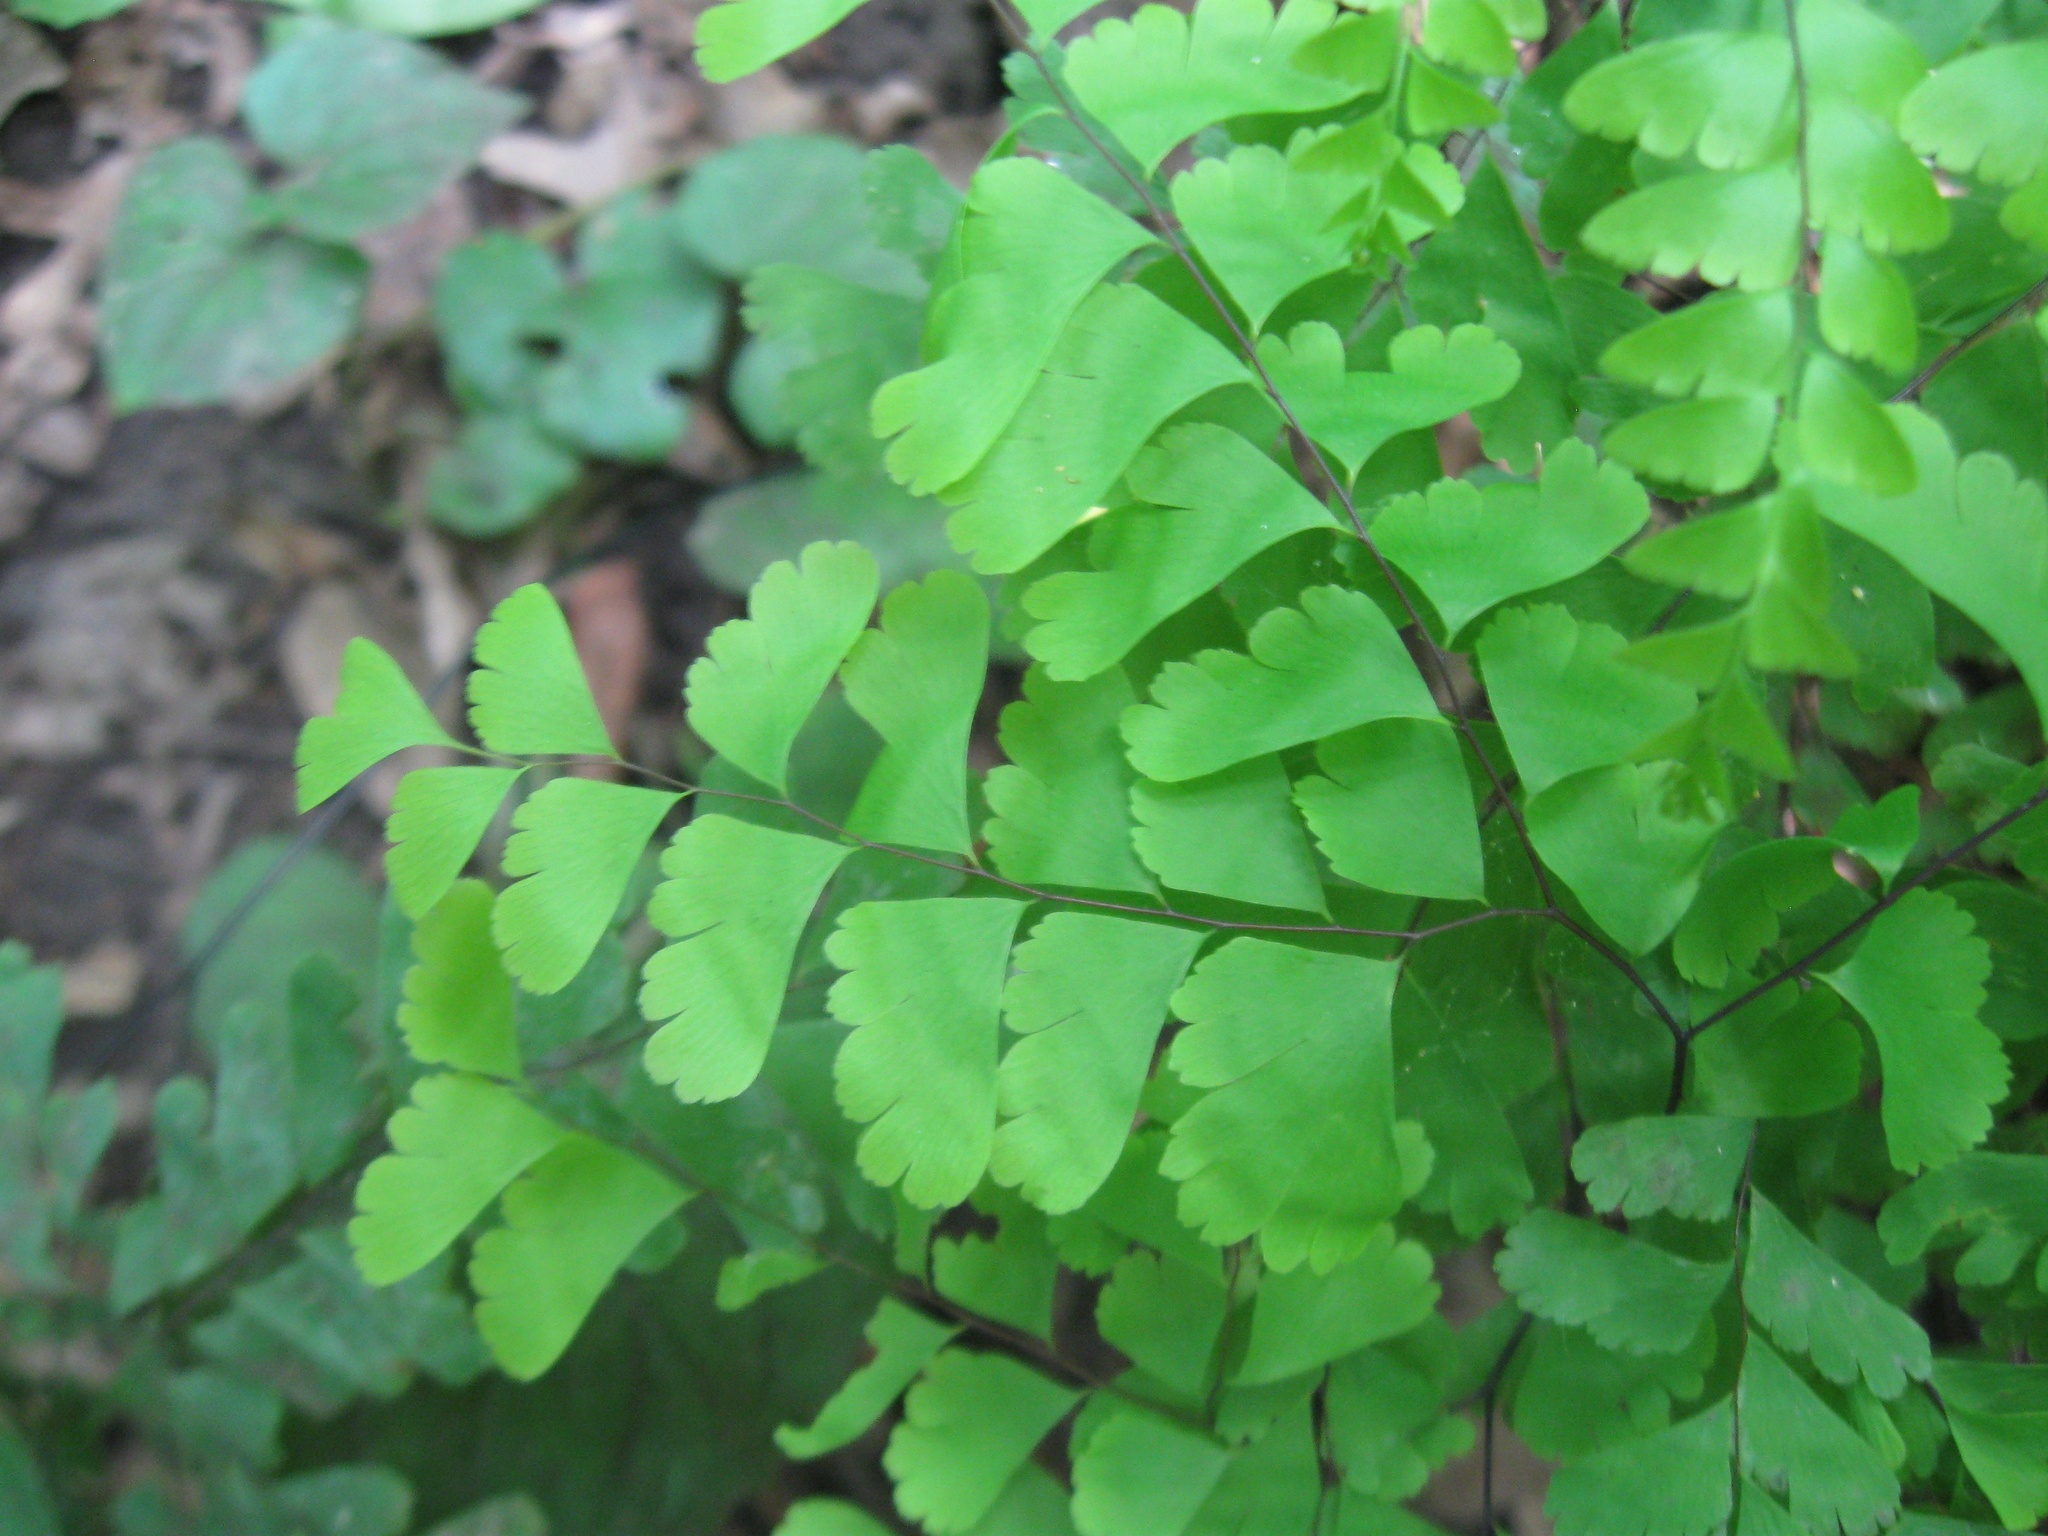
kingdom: Plantae
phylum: Tracheophyta
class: Polypodiopsida
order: Polypodiales
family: Pteridaceae
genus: Adiantum
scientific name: Adiantum pedatum
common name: Five-finger fern
